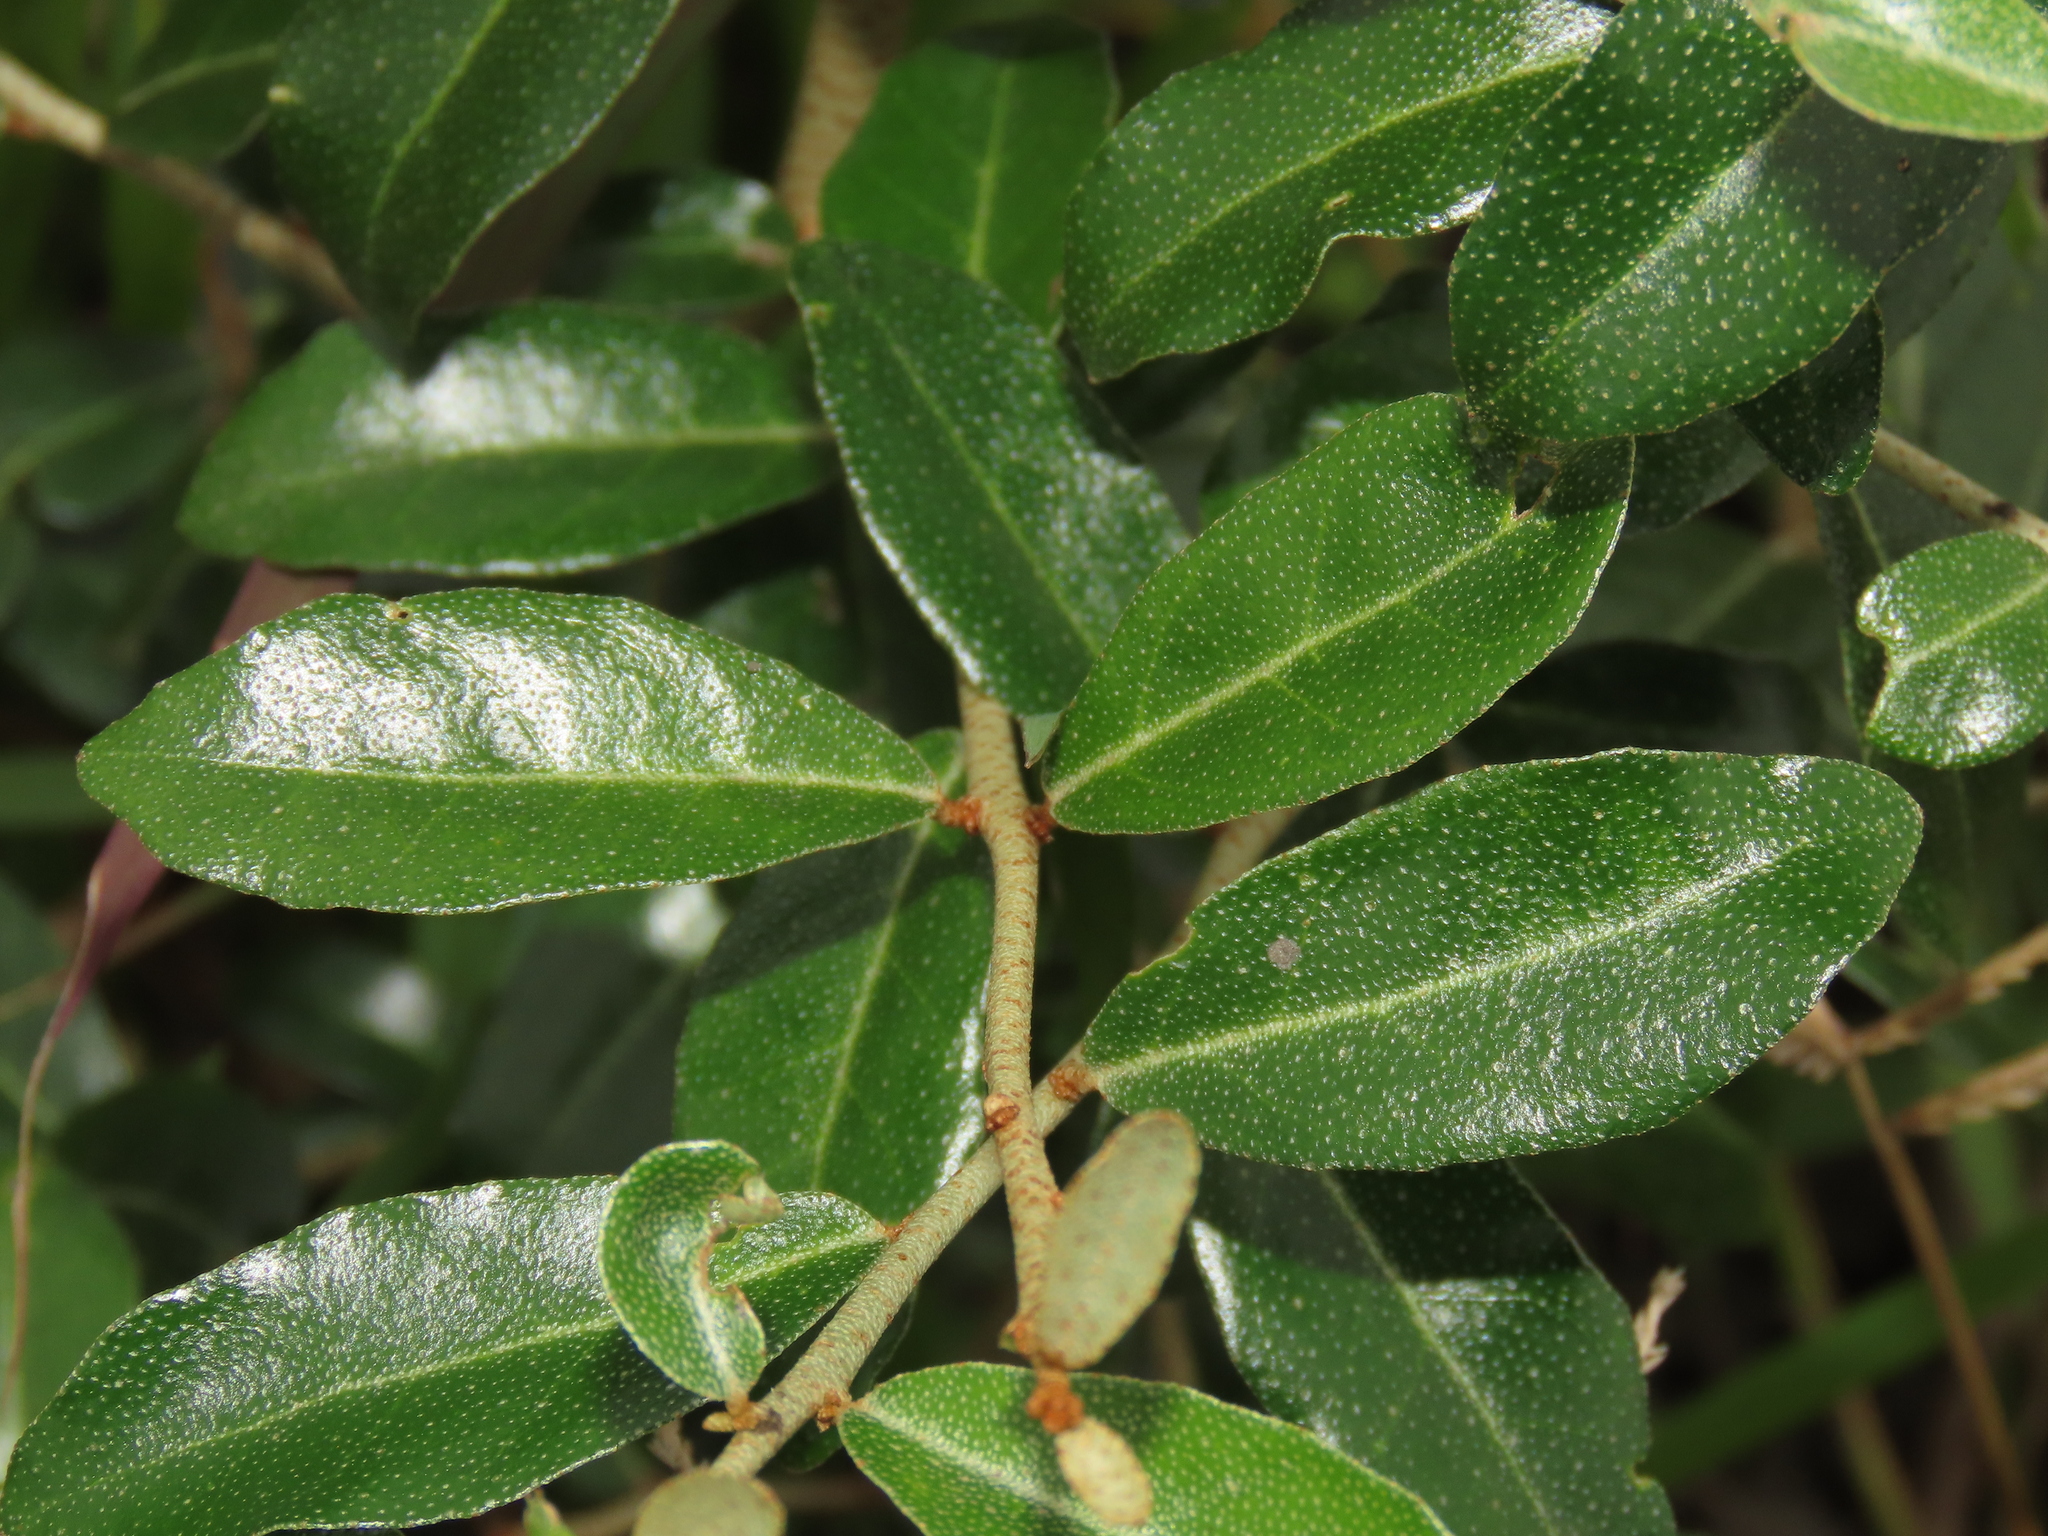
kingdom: Plantae
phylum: Tracheophyta
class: Magnoliopsida
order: Rosales
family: Elaeagnaceae
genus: Elaeagnus
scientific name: Elaeagnus oldhamii
